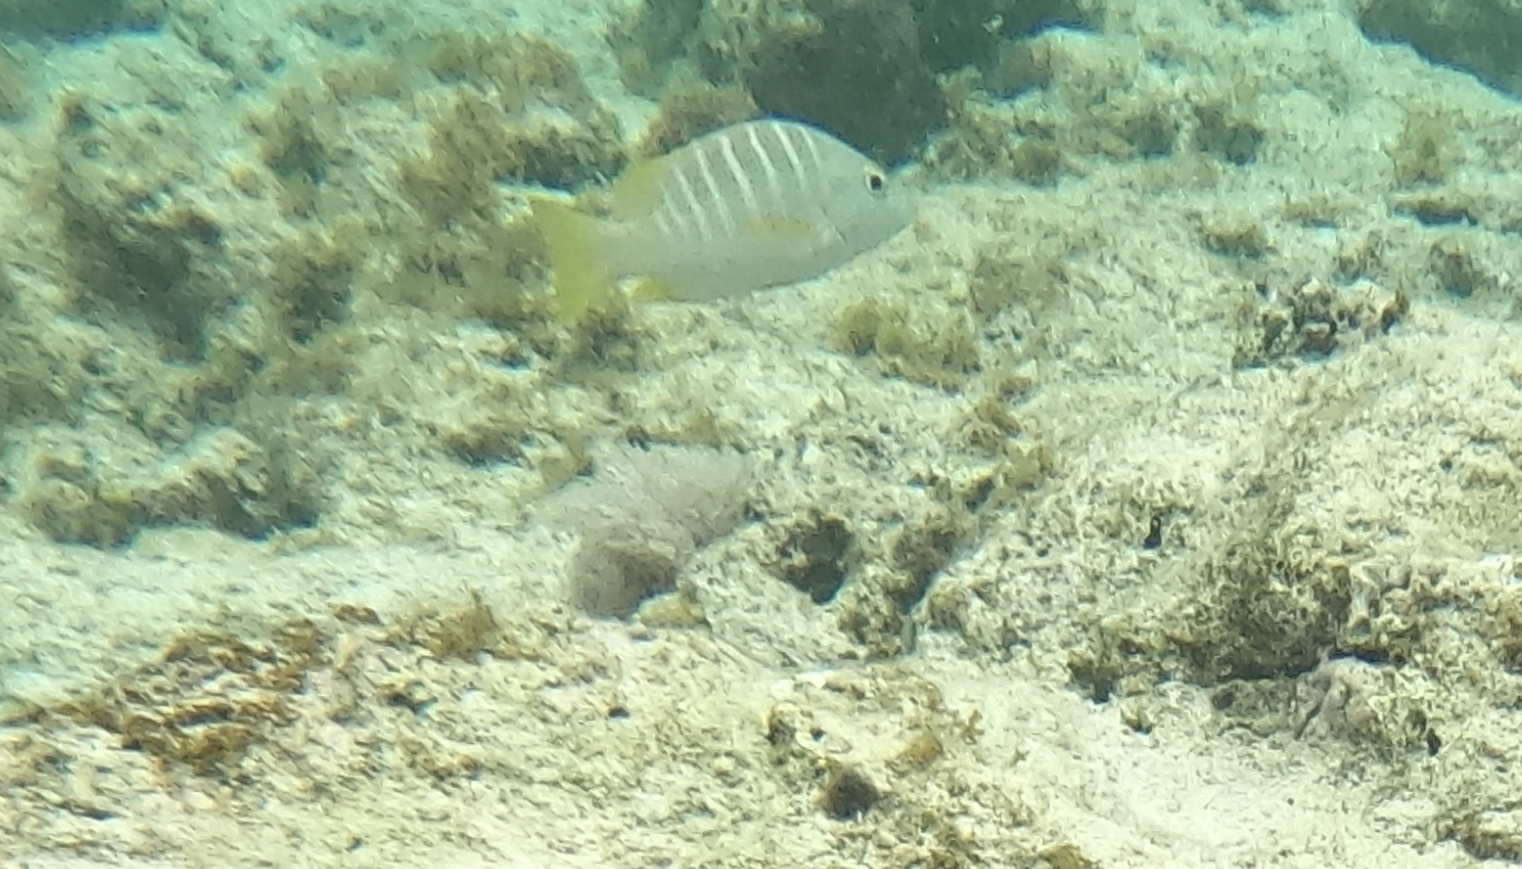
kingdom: Animalia
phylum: Chordata
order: Perciformes
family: Lutjanidae
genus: Lutjanus
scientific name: Lutjanus apodus
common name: Schoolmaster
